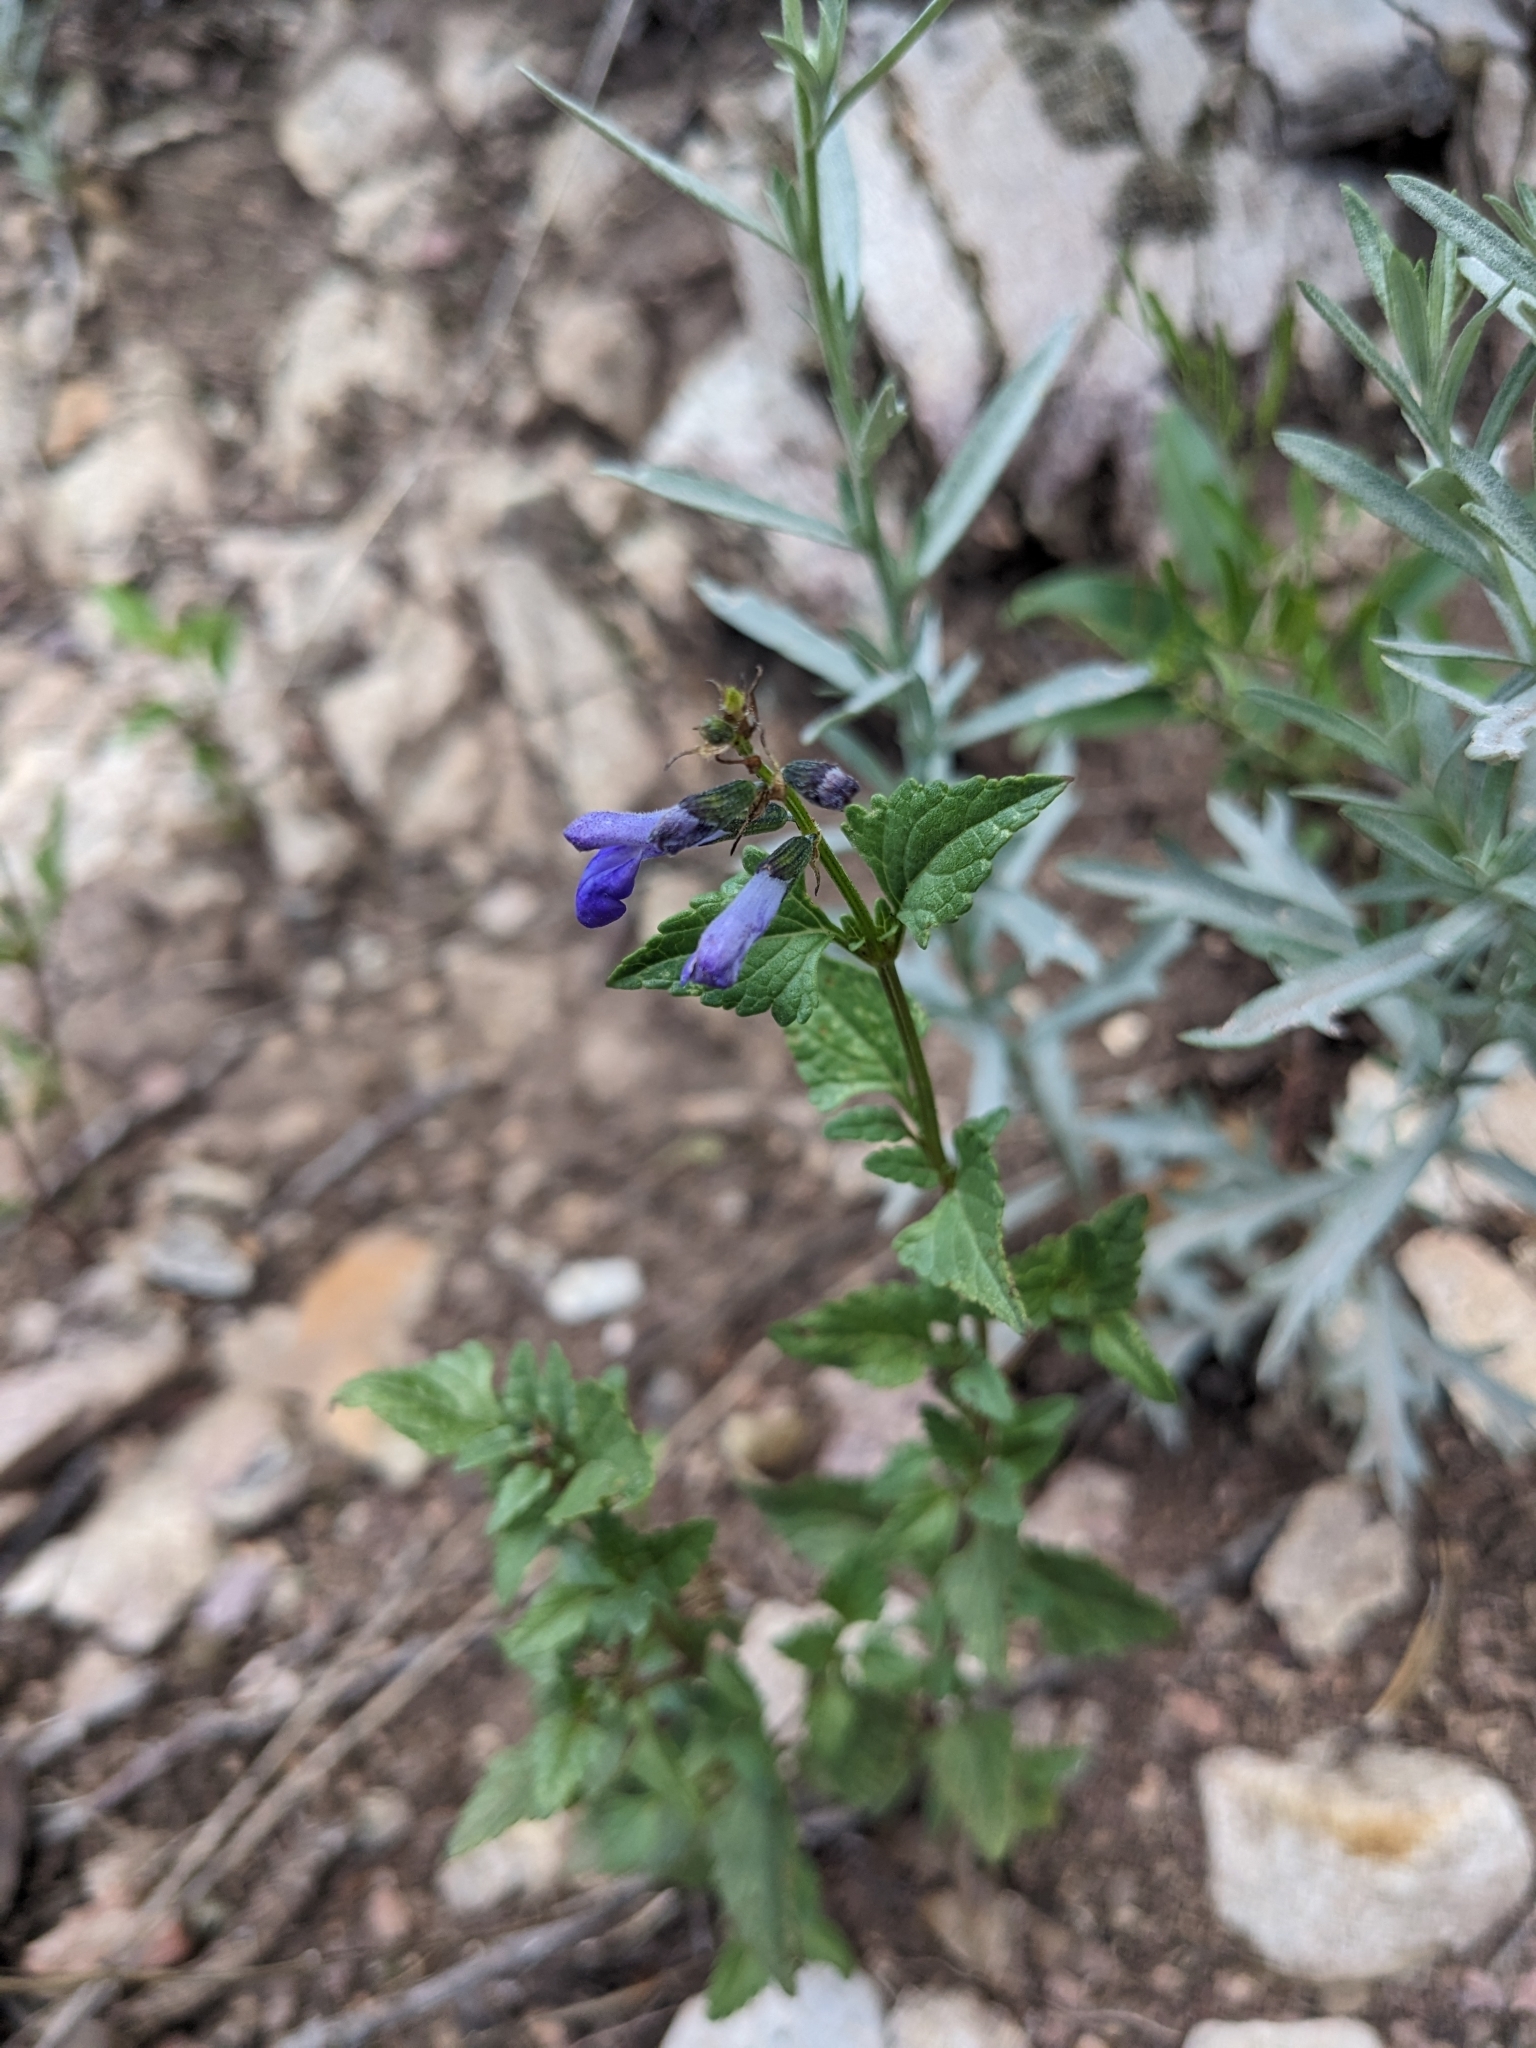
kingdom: Plantae
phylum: Tracheophyta
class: Magnoliopsida
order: Lamiales
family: Lamiaceae
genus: Salvia
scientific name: Salvia arizonica
